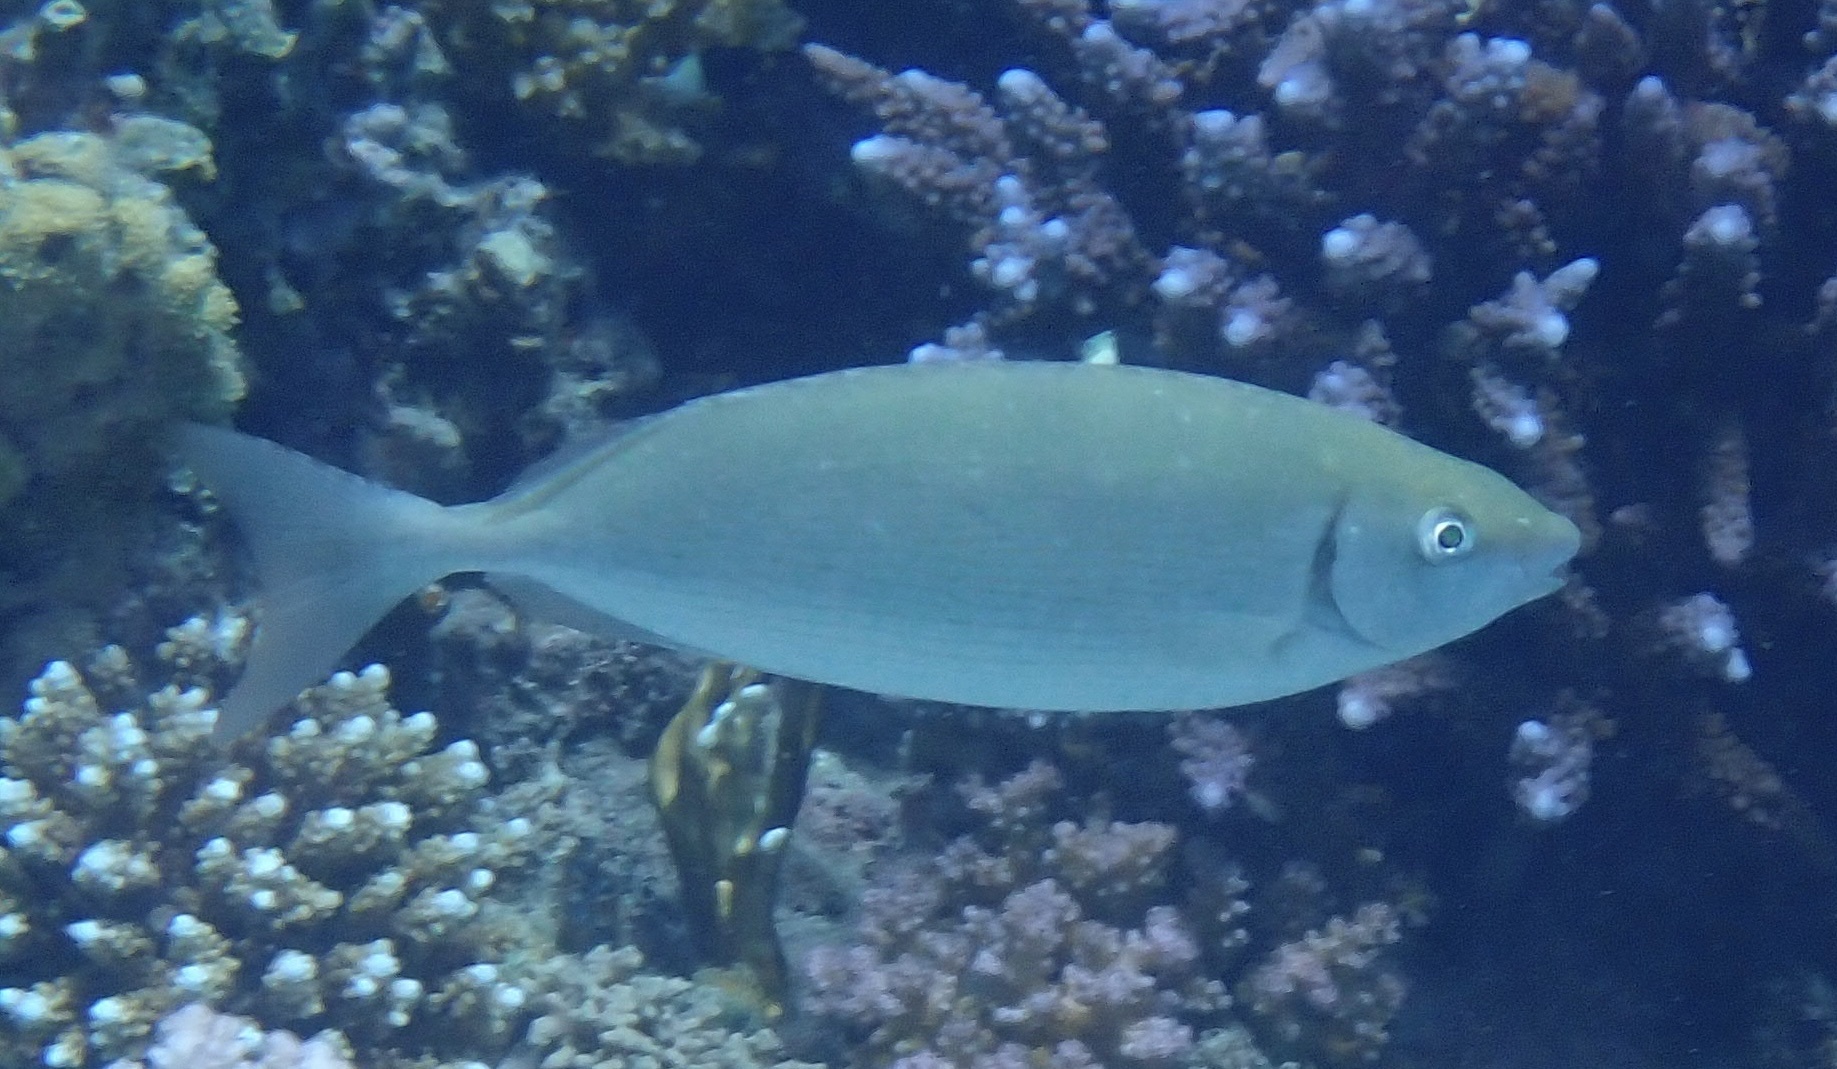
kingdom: Animalia
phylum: Chordata
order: Perciformes
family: Siganidae
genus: Siganus
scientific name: Siganus rivulatus
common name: Marbled spinefoot
